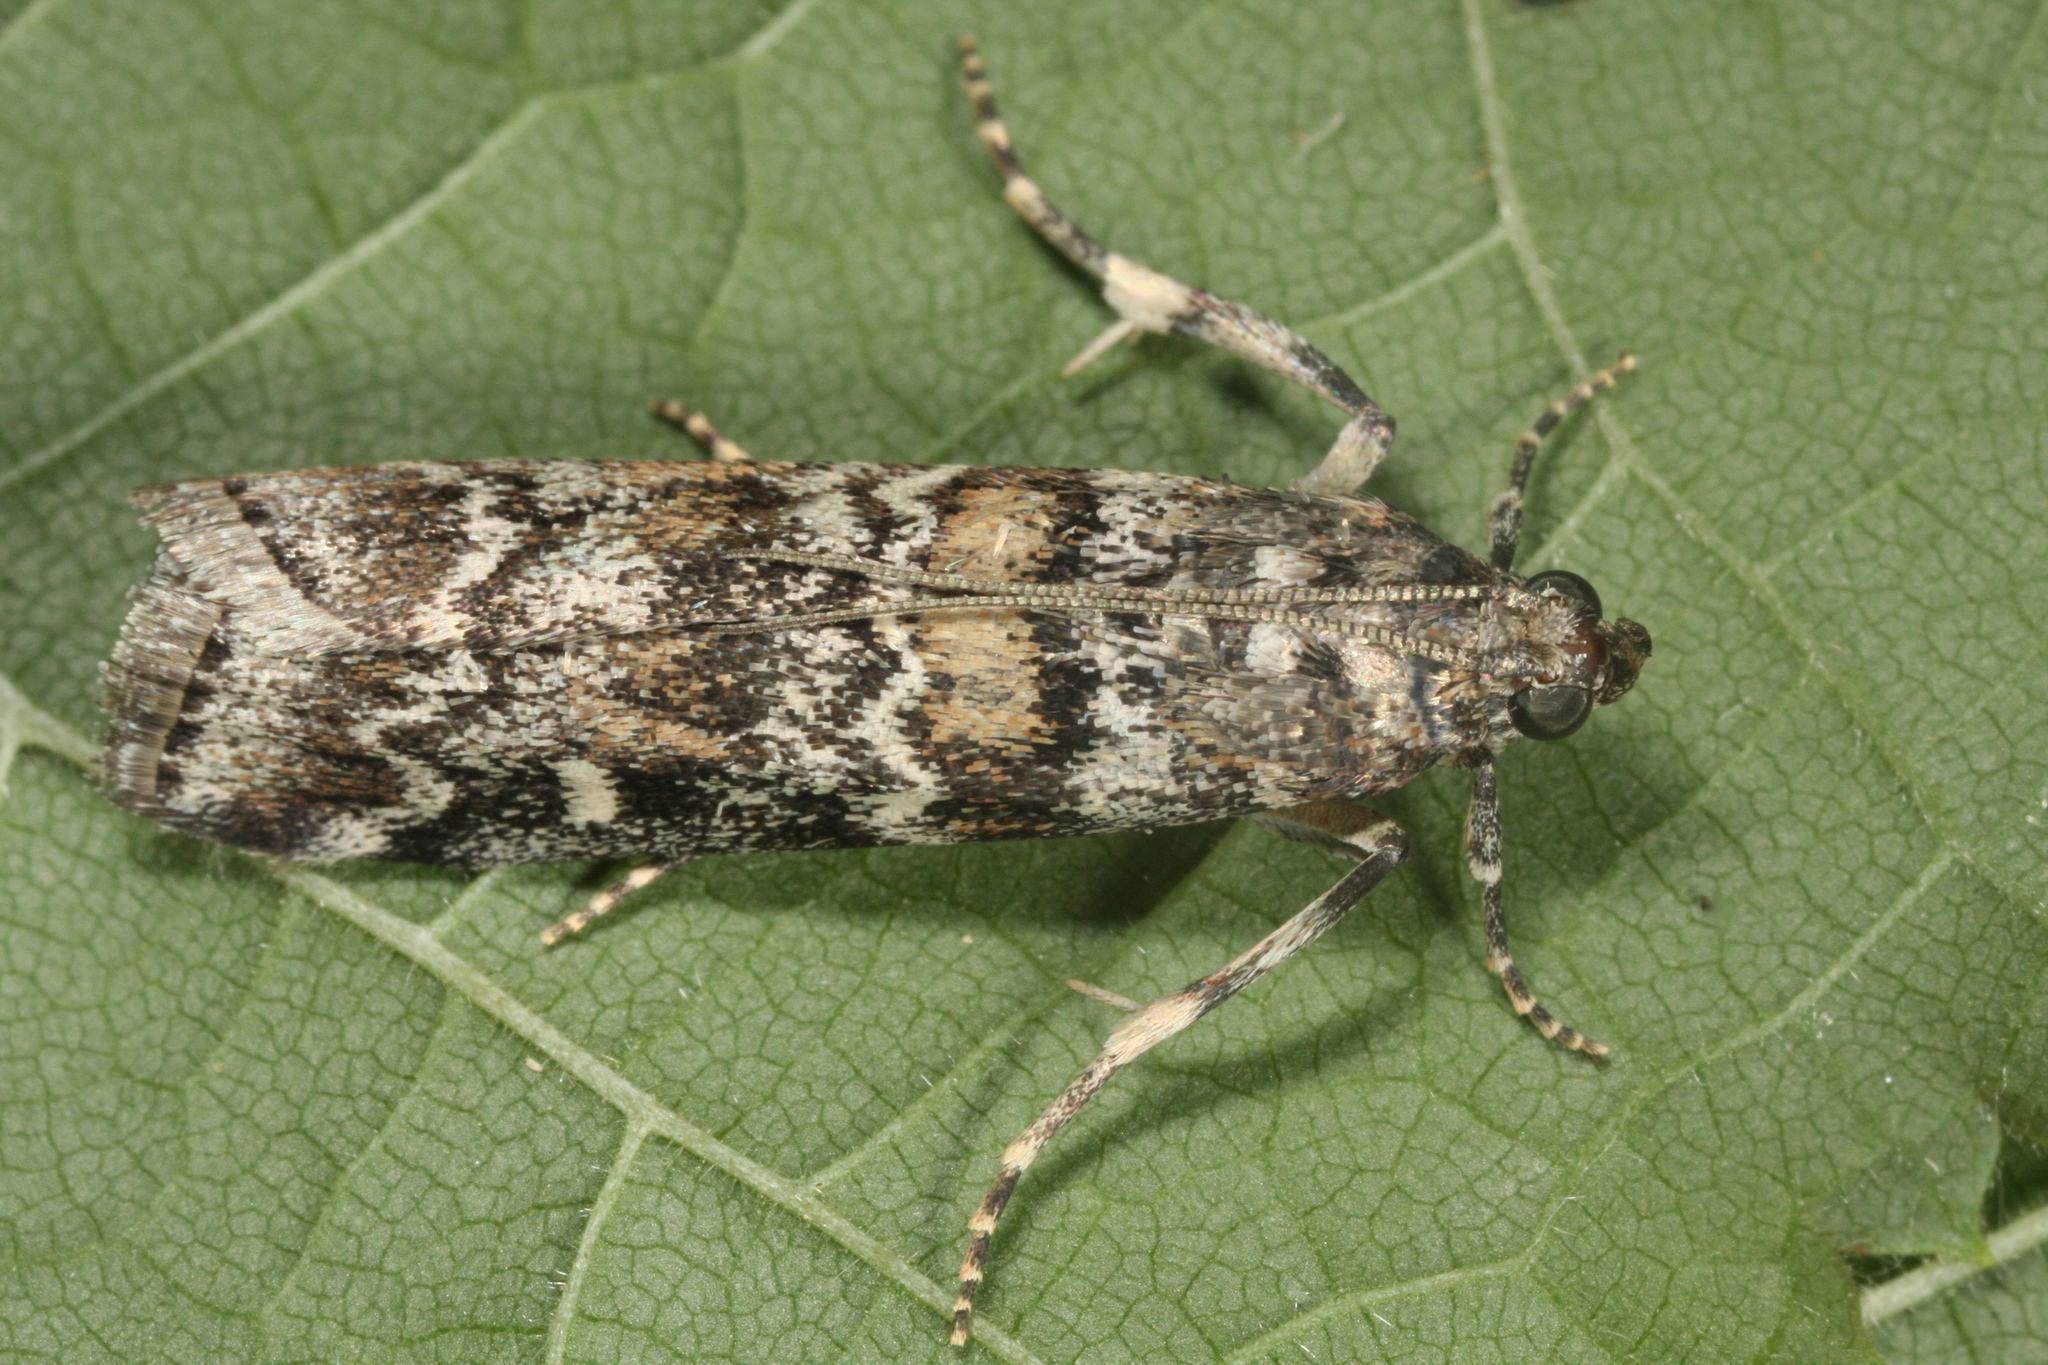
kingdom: Animalia
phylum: Arthropoda
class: Insecta
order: Lepidoptera
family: Pyralidae
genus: Dioryctria
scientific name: Dioryctria abietella
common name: Dark pine knot-horn
